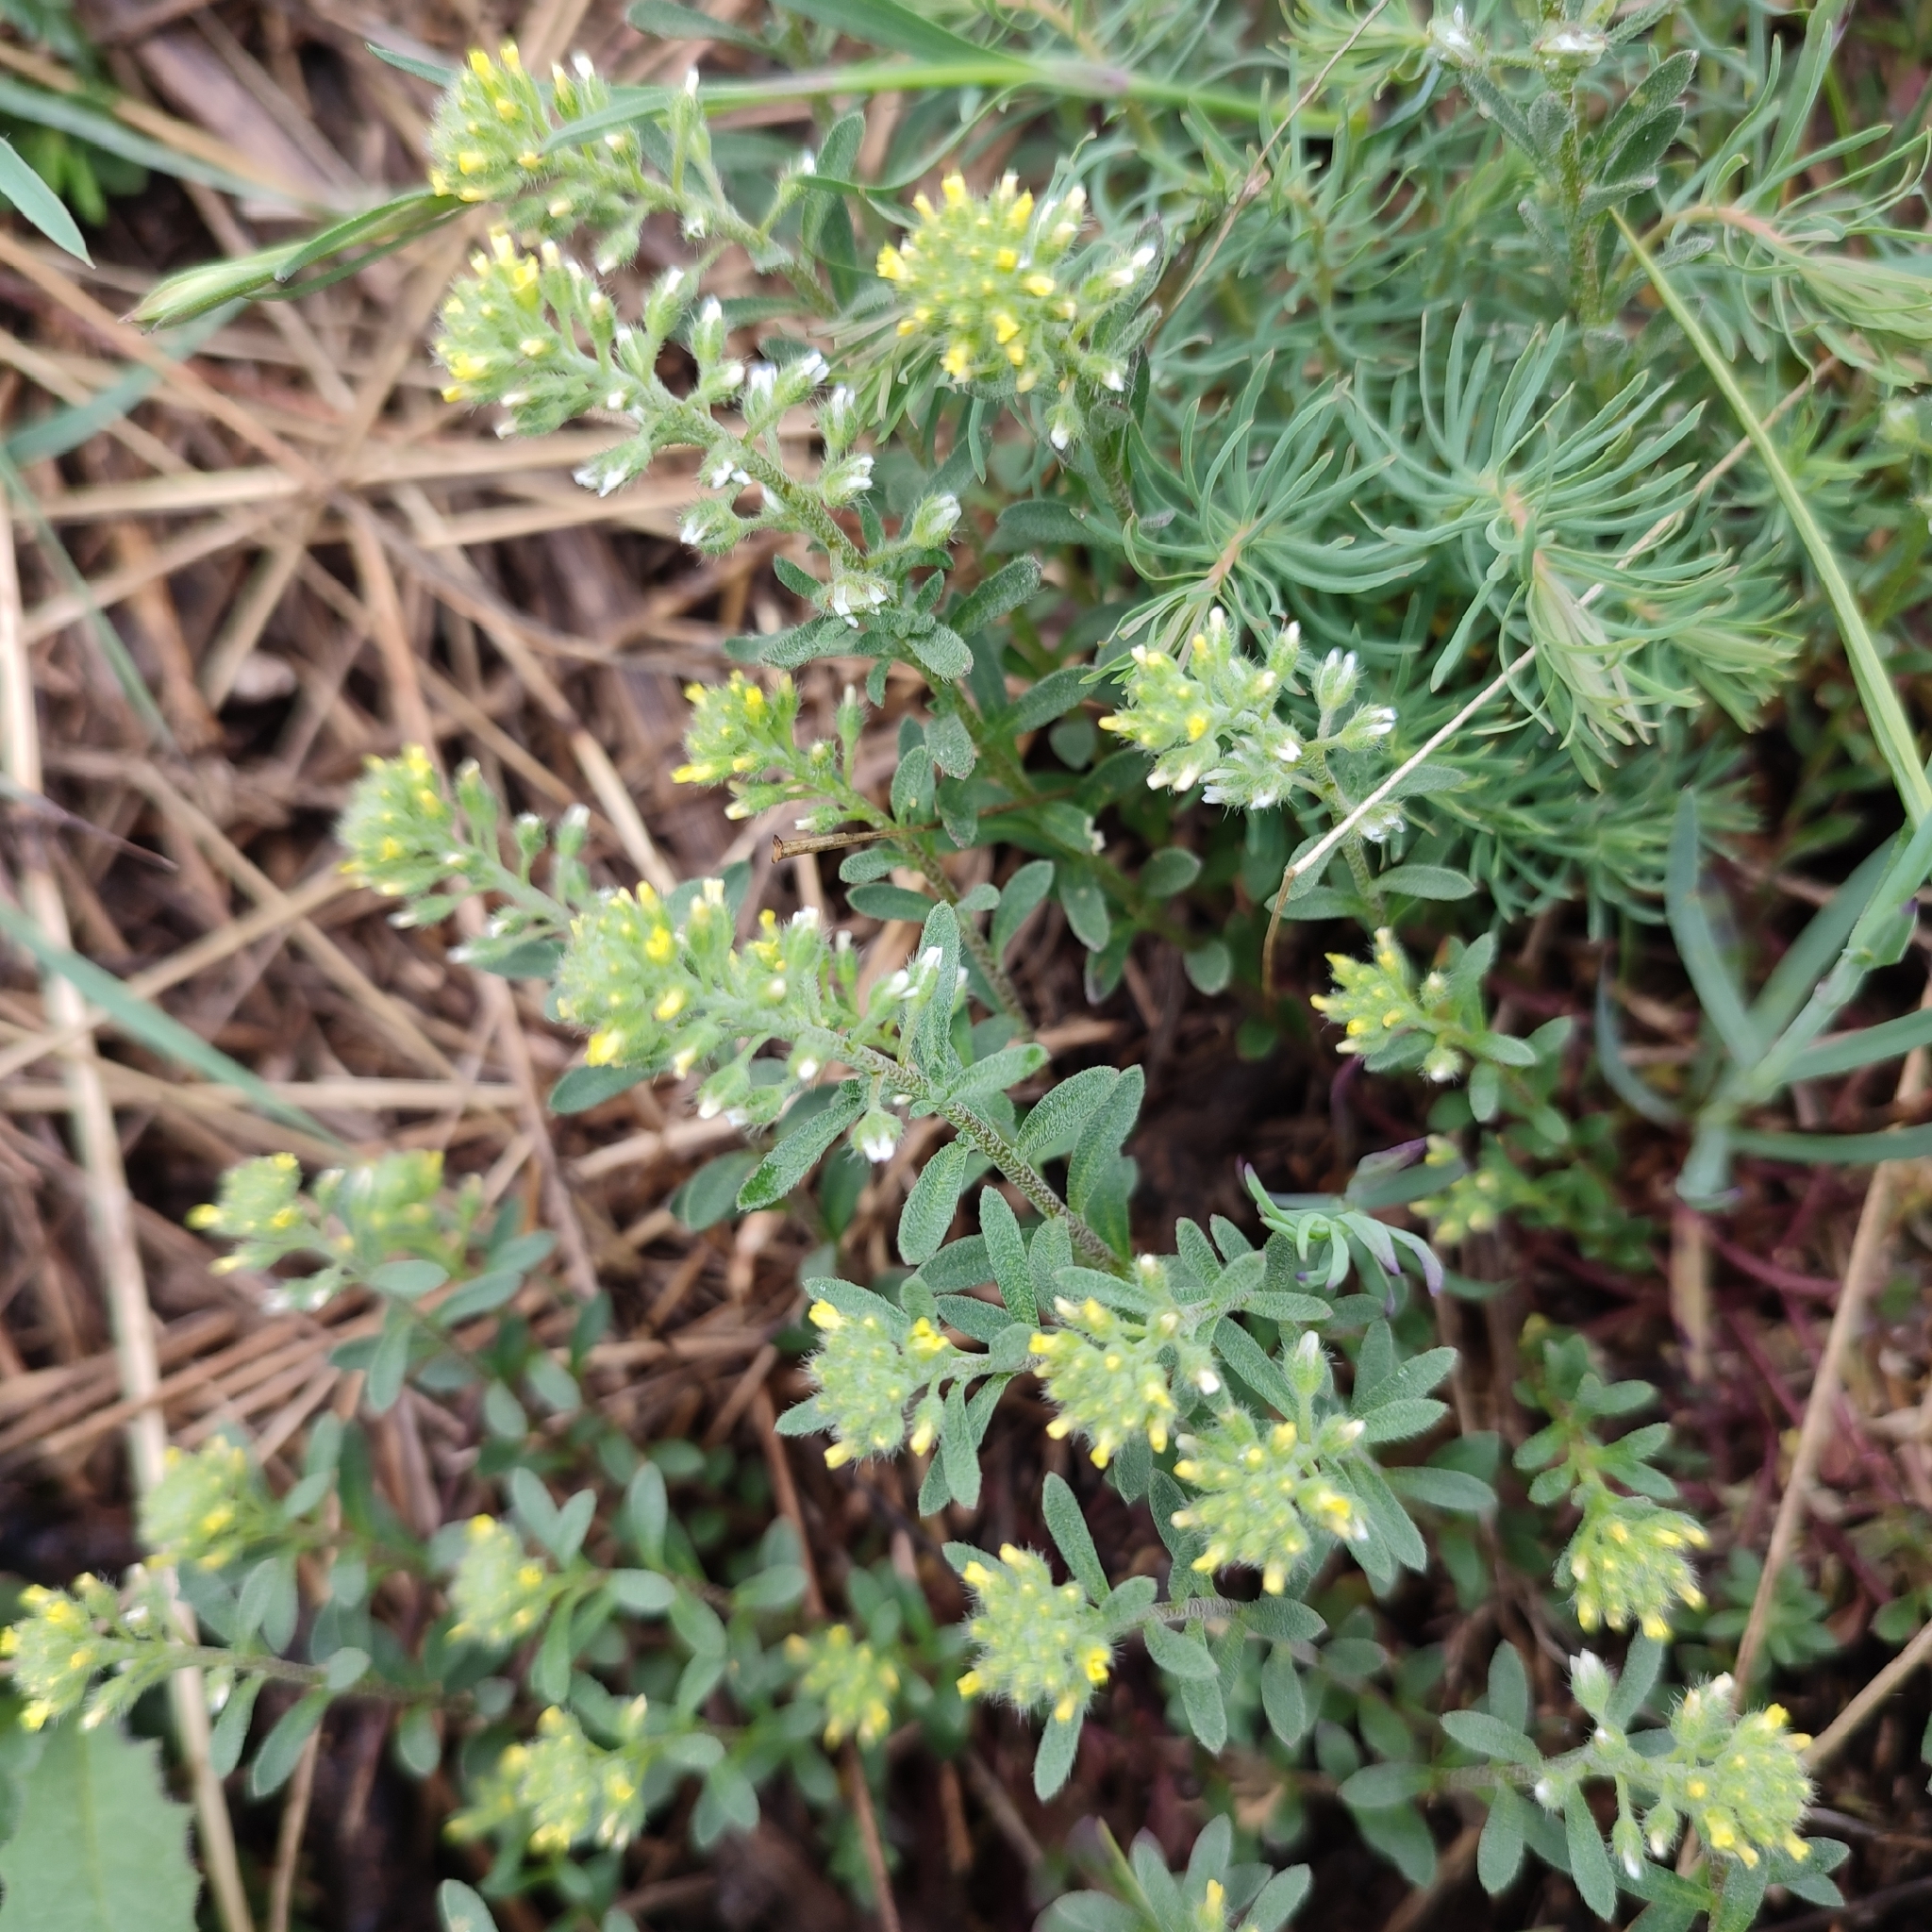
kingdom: Plantae
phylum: Tracheophyta
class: Magnoliopsida
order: Brassicales
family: Brassicaceae
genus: Alyssum
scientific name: Alyssum alyssoides
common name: Small alison
